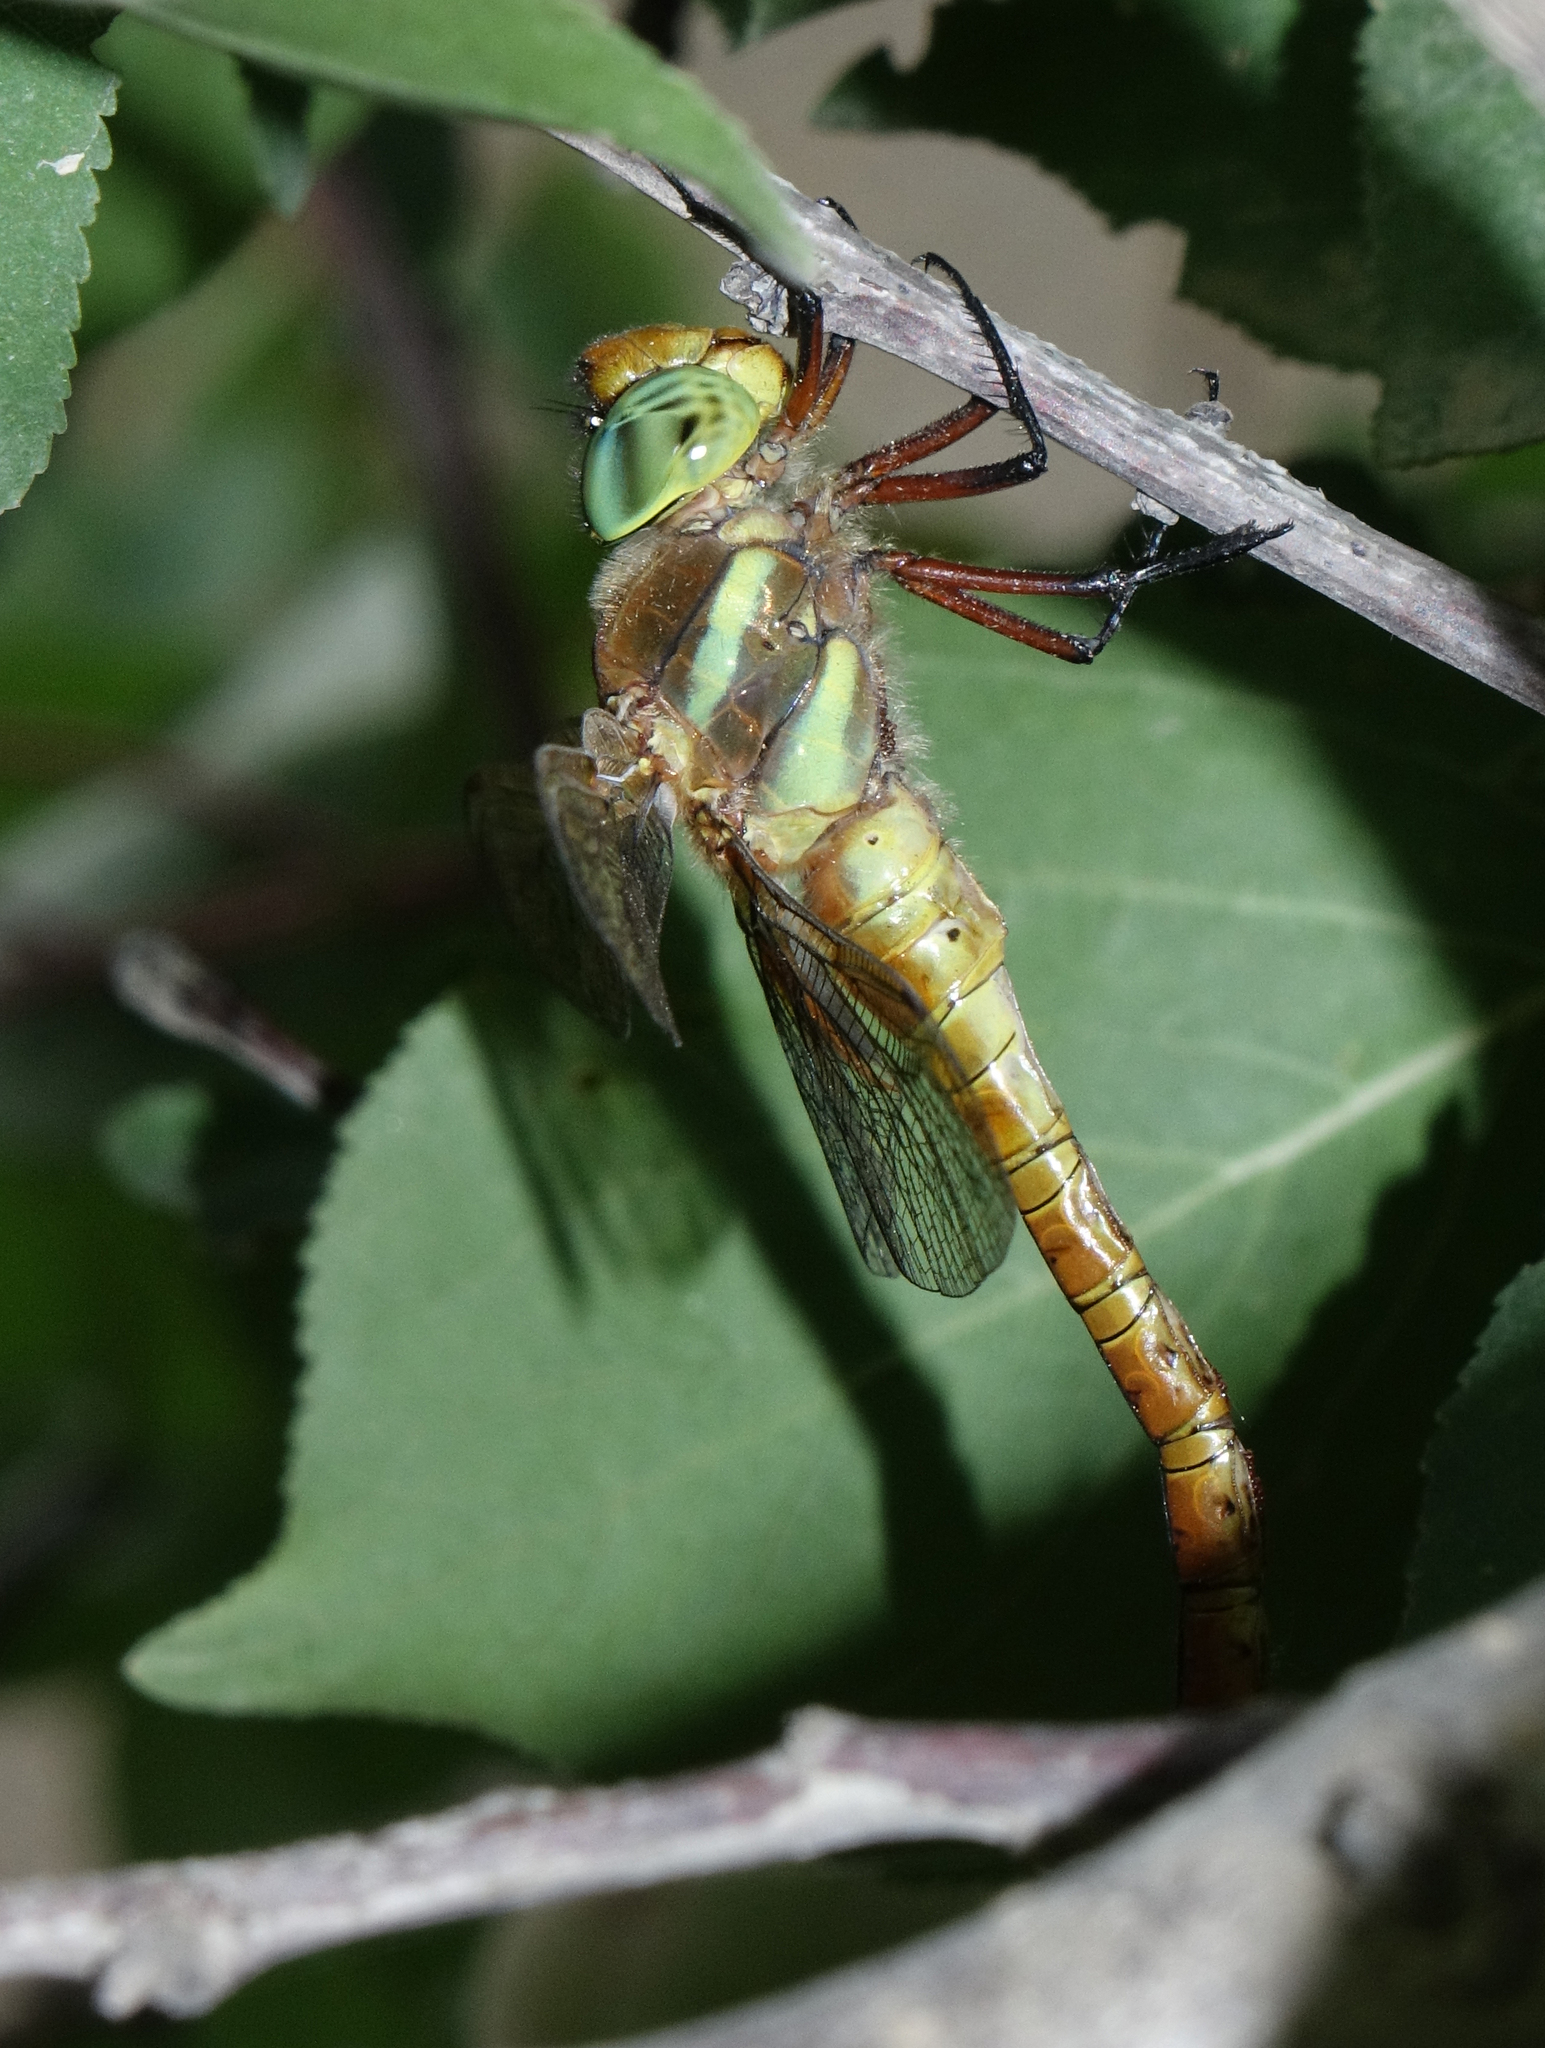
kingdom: Animalia
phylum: Arthropoda
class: Insecta
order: Odonata
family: Aeshnidae
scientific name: Aeshnidae
